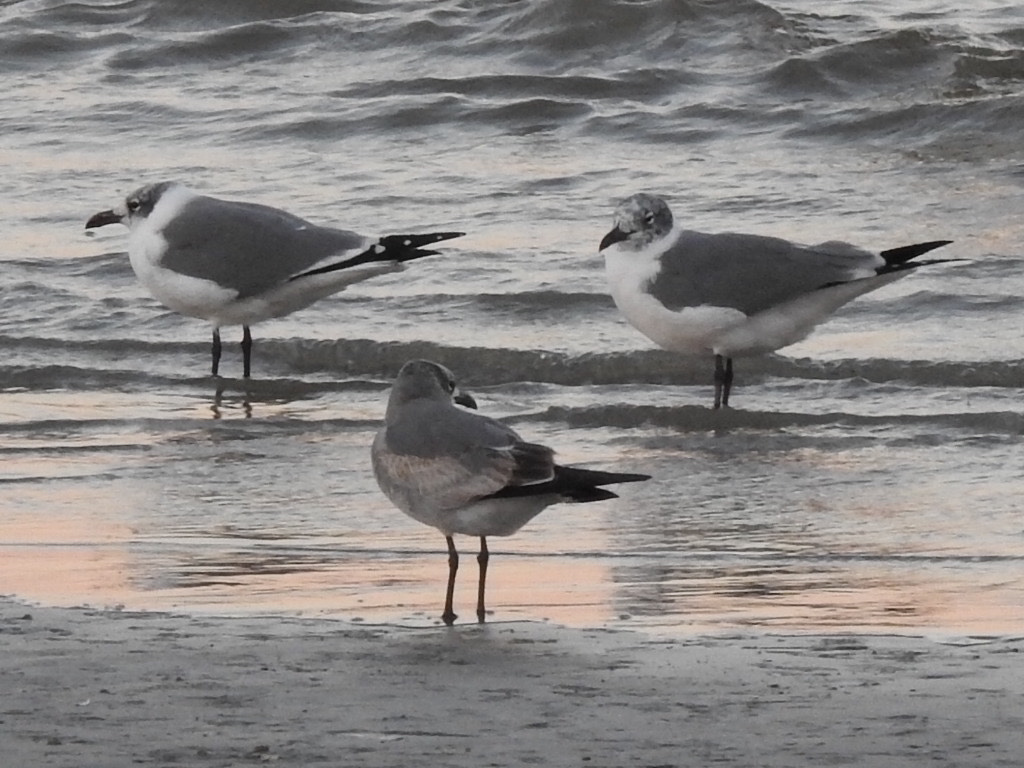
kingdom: Animalia
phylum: Chordata
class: Aves
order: Charadriiformes
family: Laridae
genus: Leucophaeus
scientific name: Leucophaeus atricilla
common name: Laughing gull
